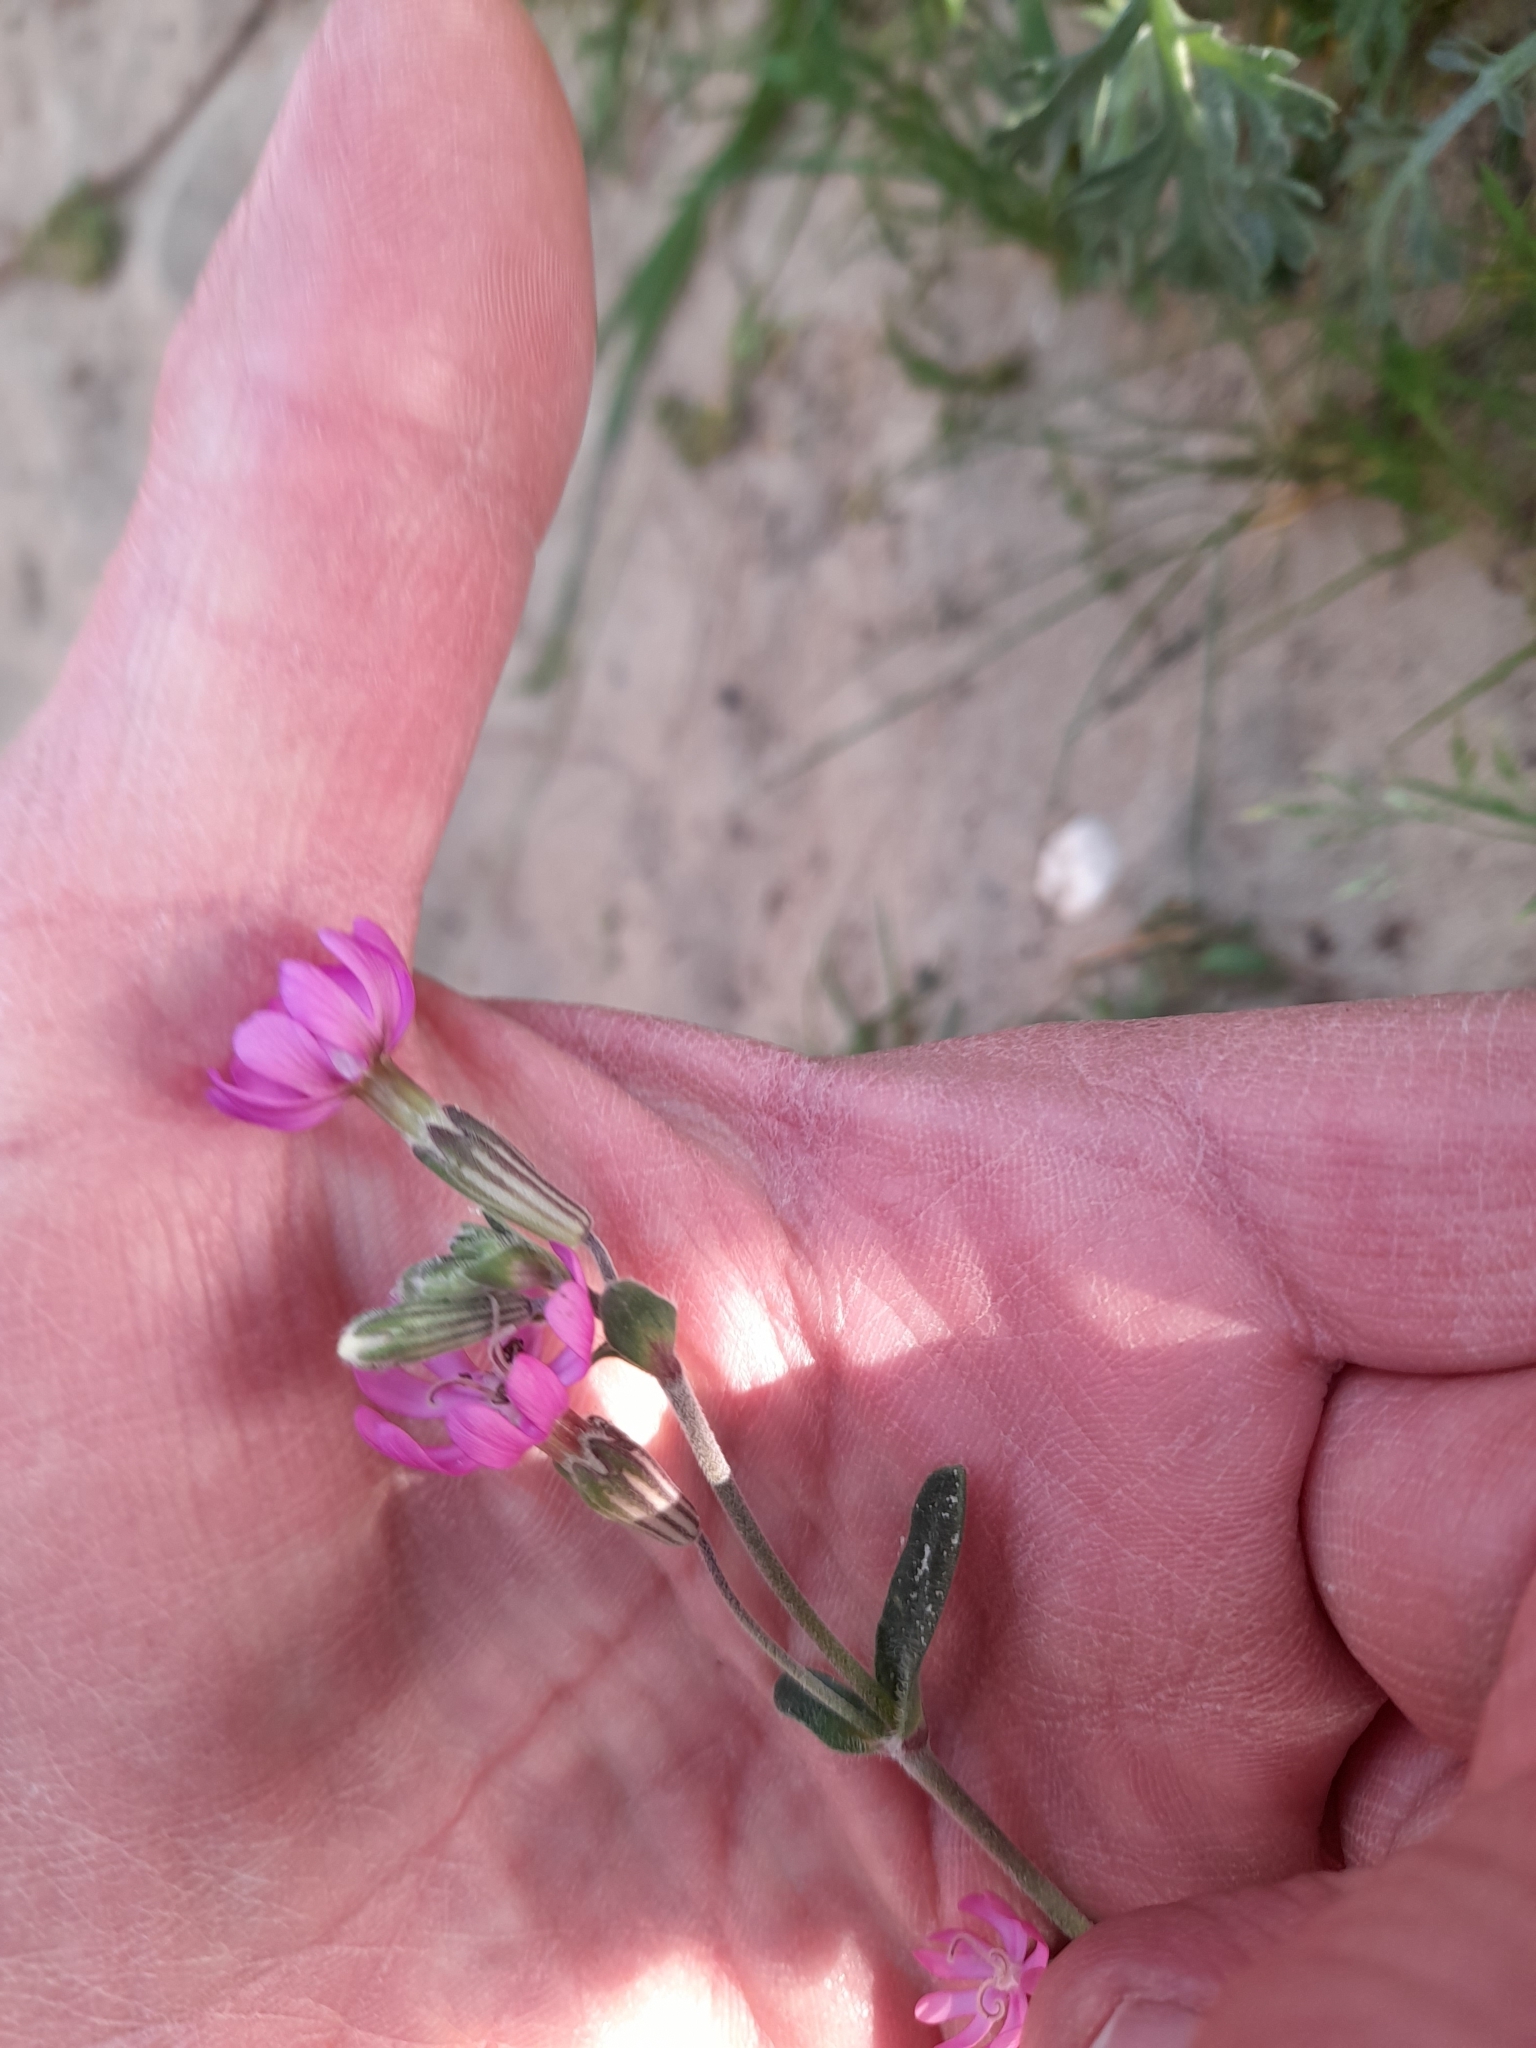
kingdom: Plantae
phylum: Tracheophyta
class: Magnoliopsida
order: Caryophyllales
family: Caryophyllaceae
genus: Silene
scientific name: Silene colorata
